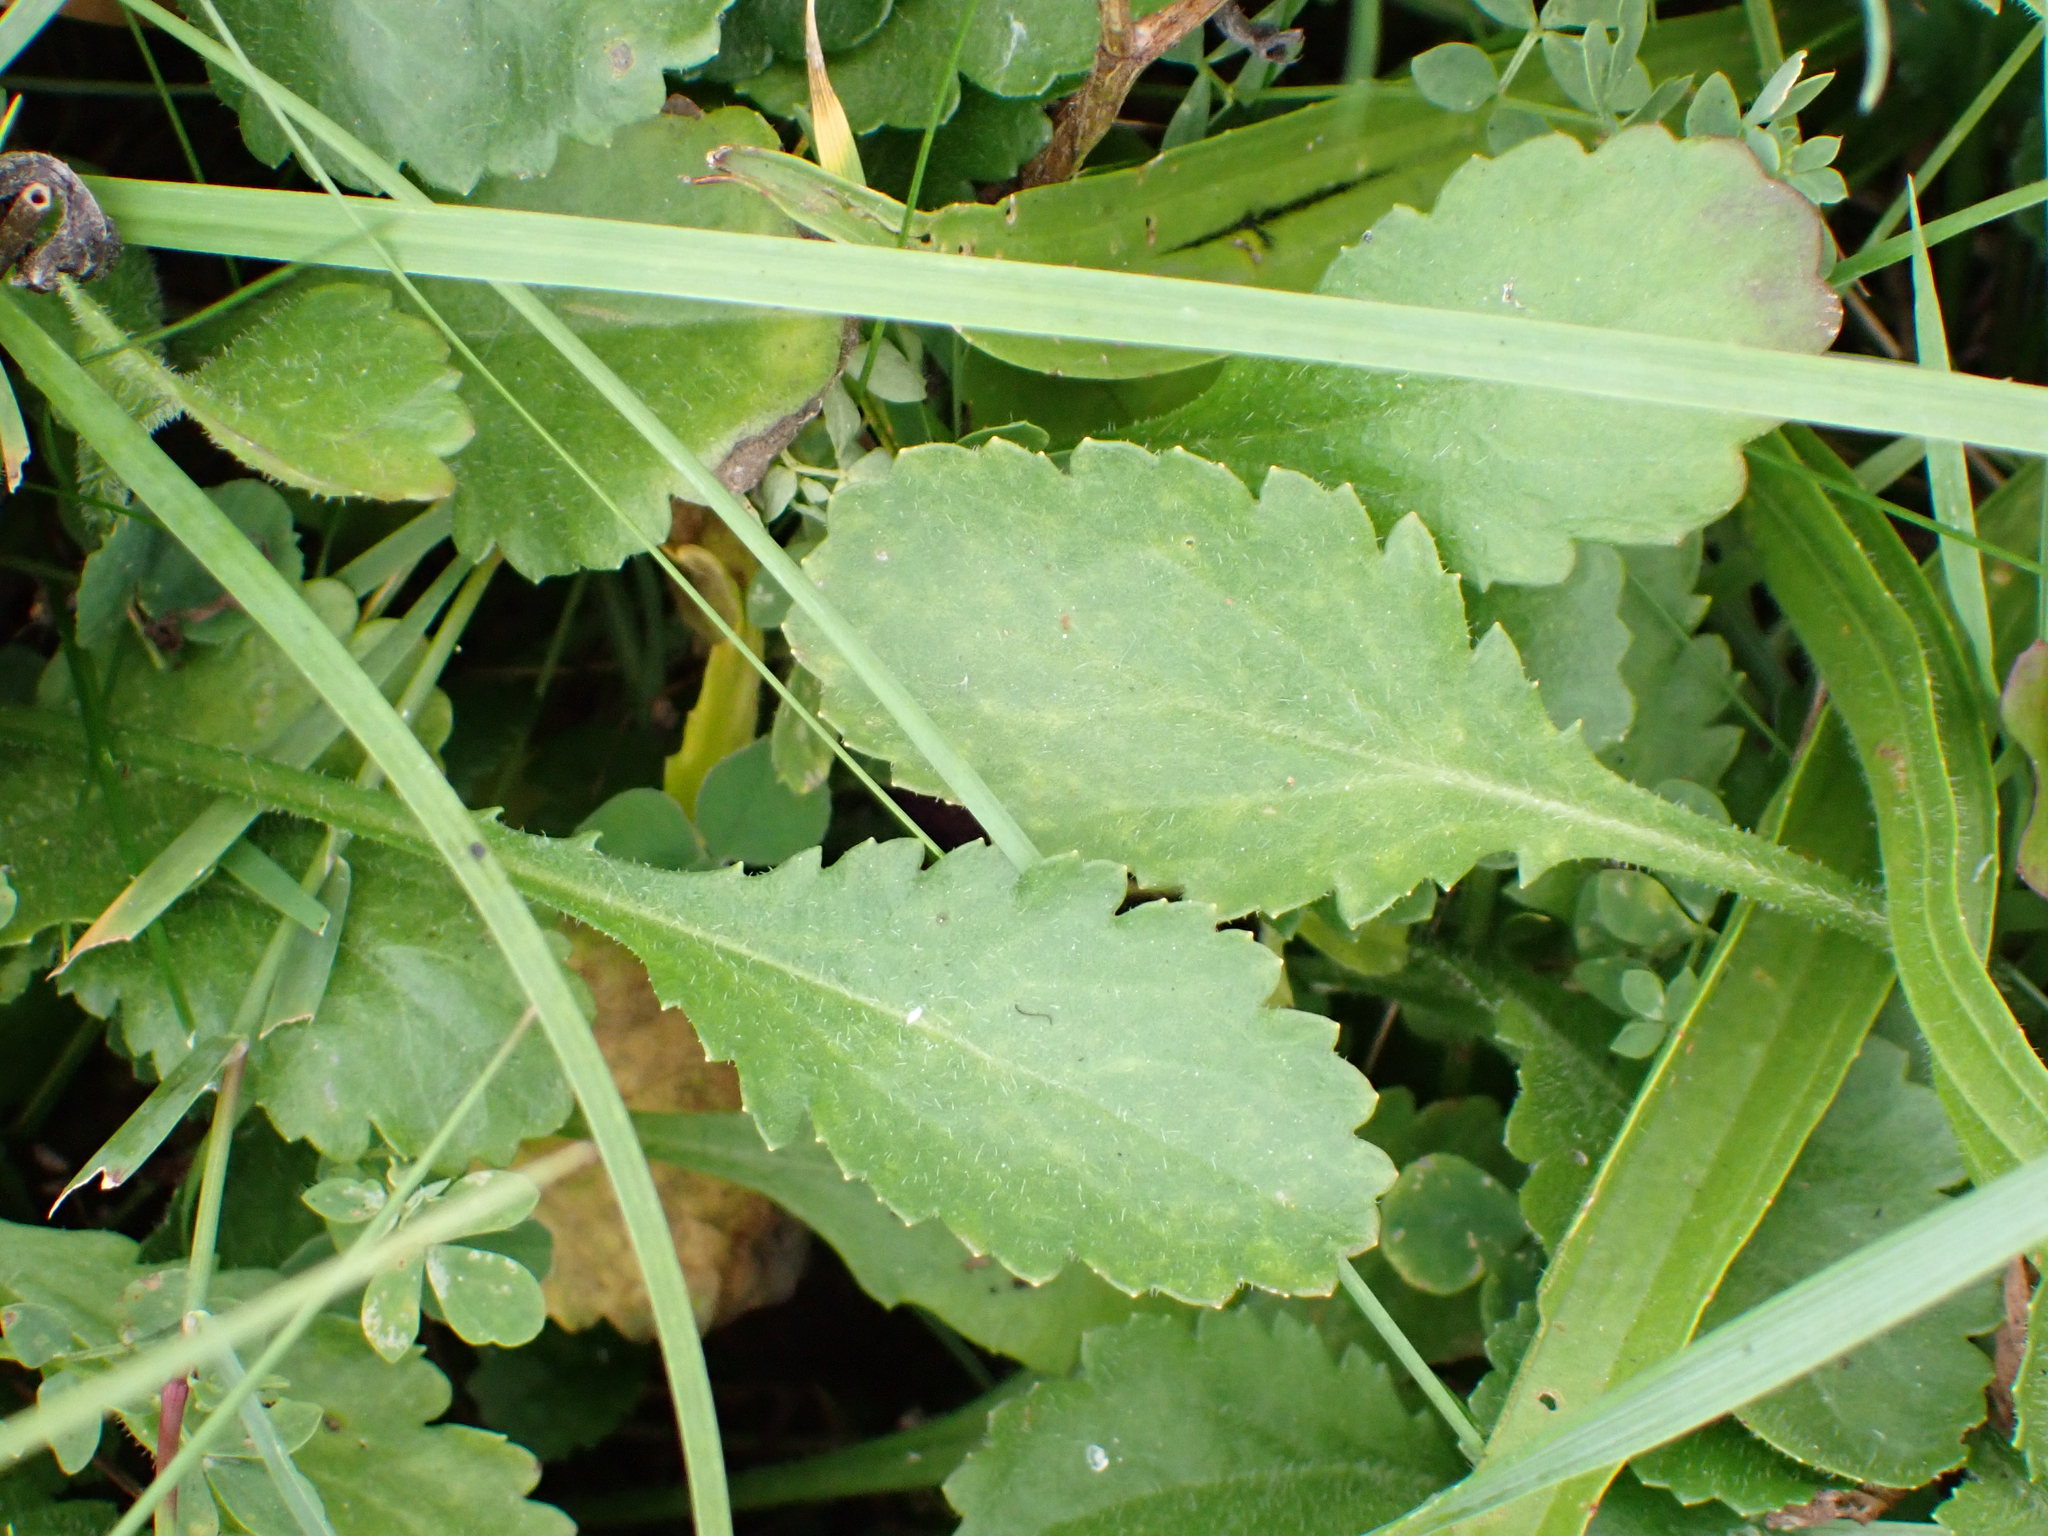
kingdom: Plantae
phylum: Tracheophyta
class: Magnoliopsida
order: Asterales
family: Asteraceae
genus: Leucanthemum
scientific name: Leucanthemum vulgare
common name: Oxeye daisy
